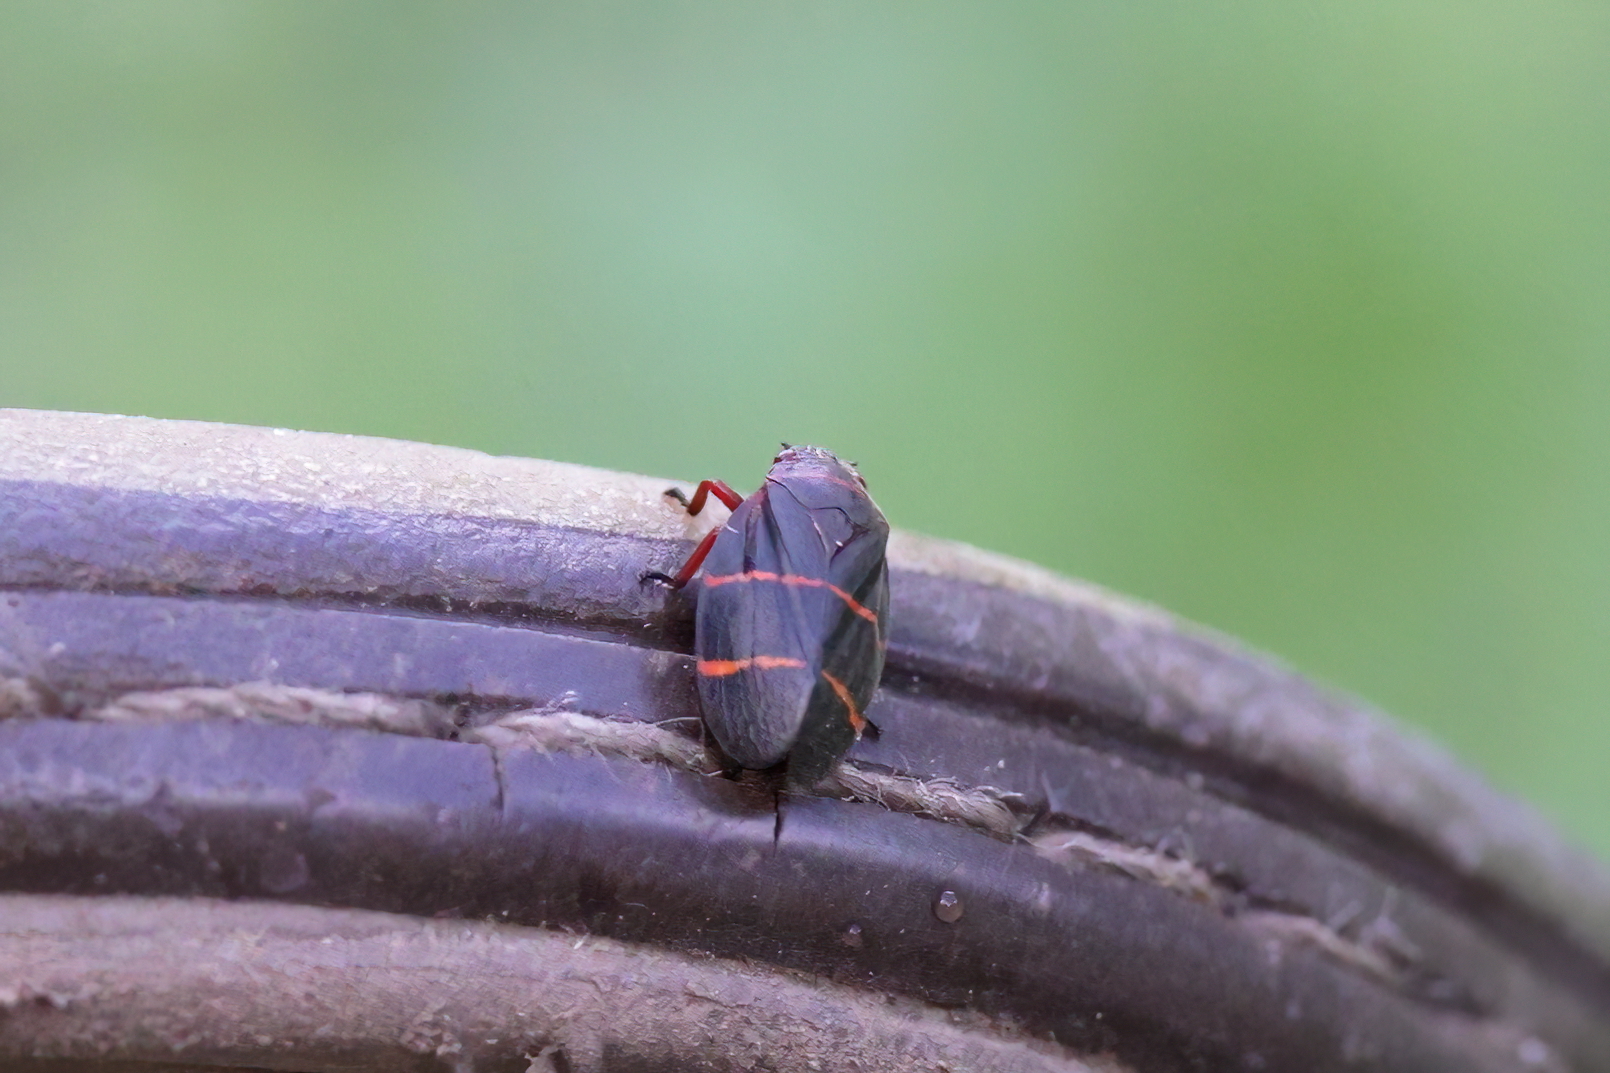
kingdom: Animalia
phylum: Arthropoda
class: Insecta
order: Hemiptera
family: Cercopidae
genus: Prosapia
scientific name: Prosapia bicincta
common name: Twolined spittlebug
